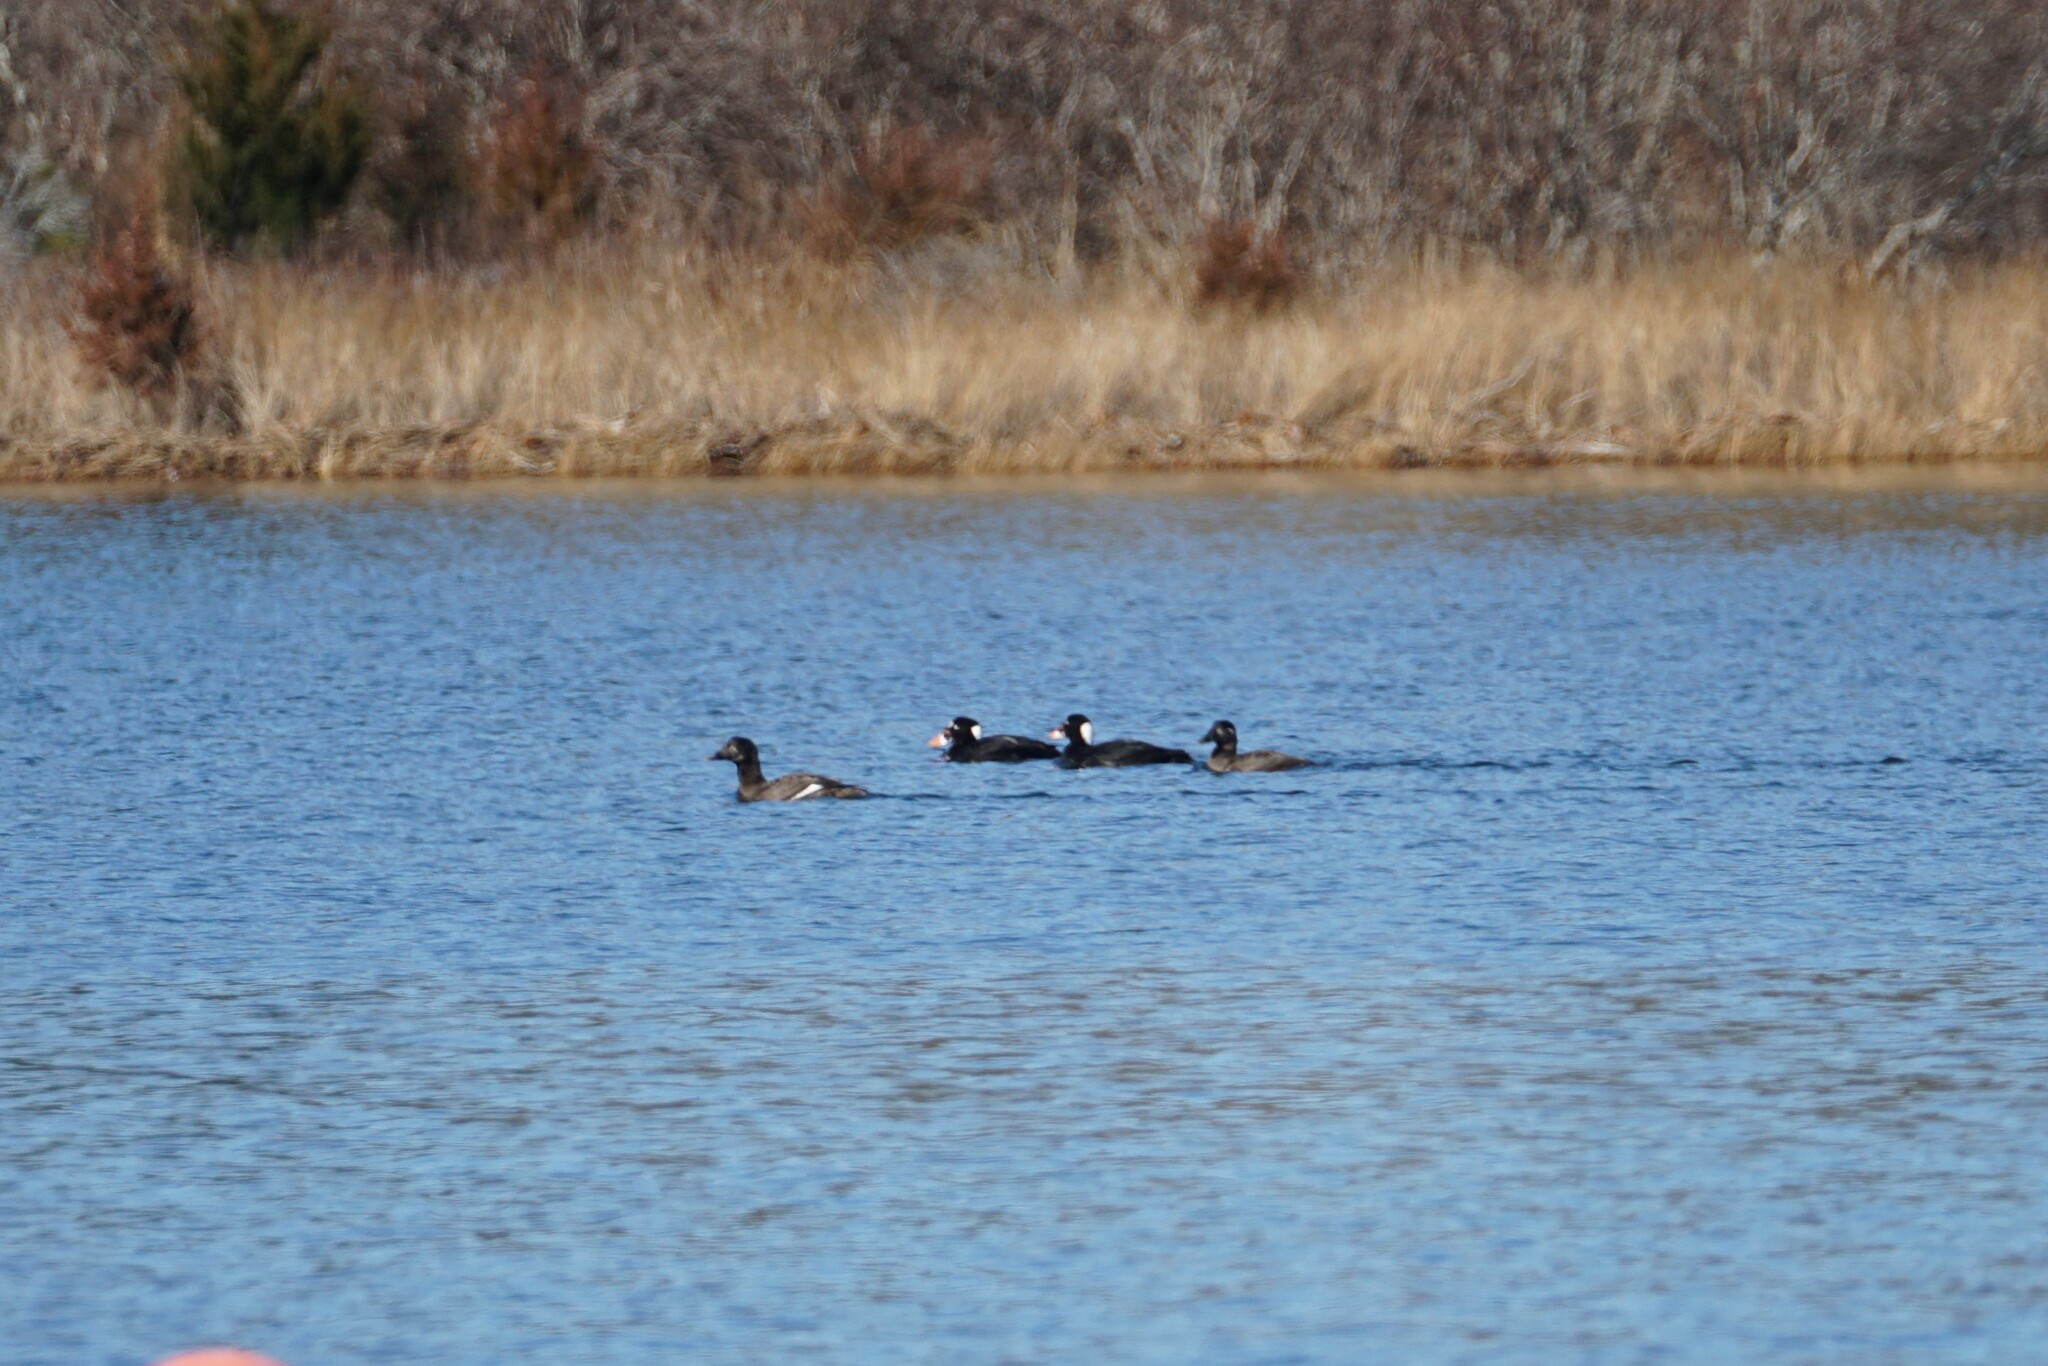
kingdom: Animalia
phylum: Chordata
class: Aves
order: Anseriformes
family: Anatidae
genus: Melanitta
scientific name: Melanitta perspicillata
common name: Surf scoter
